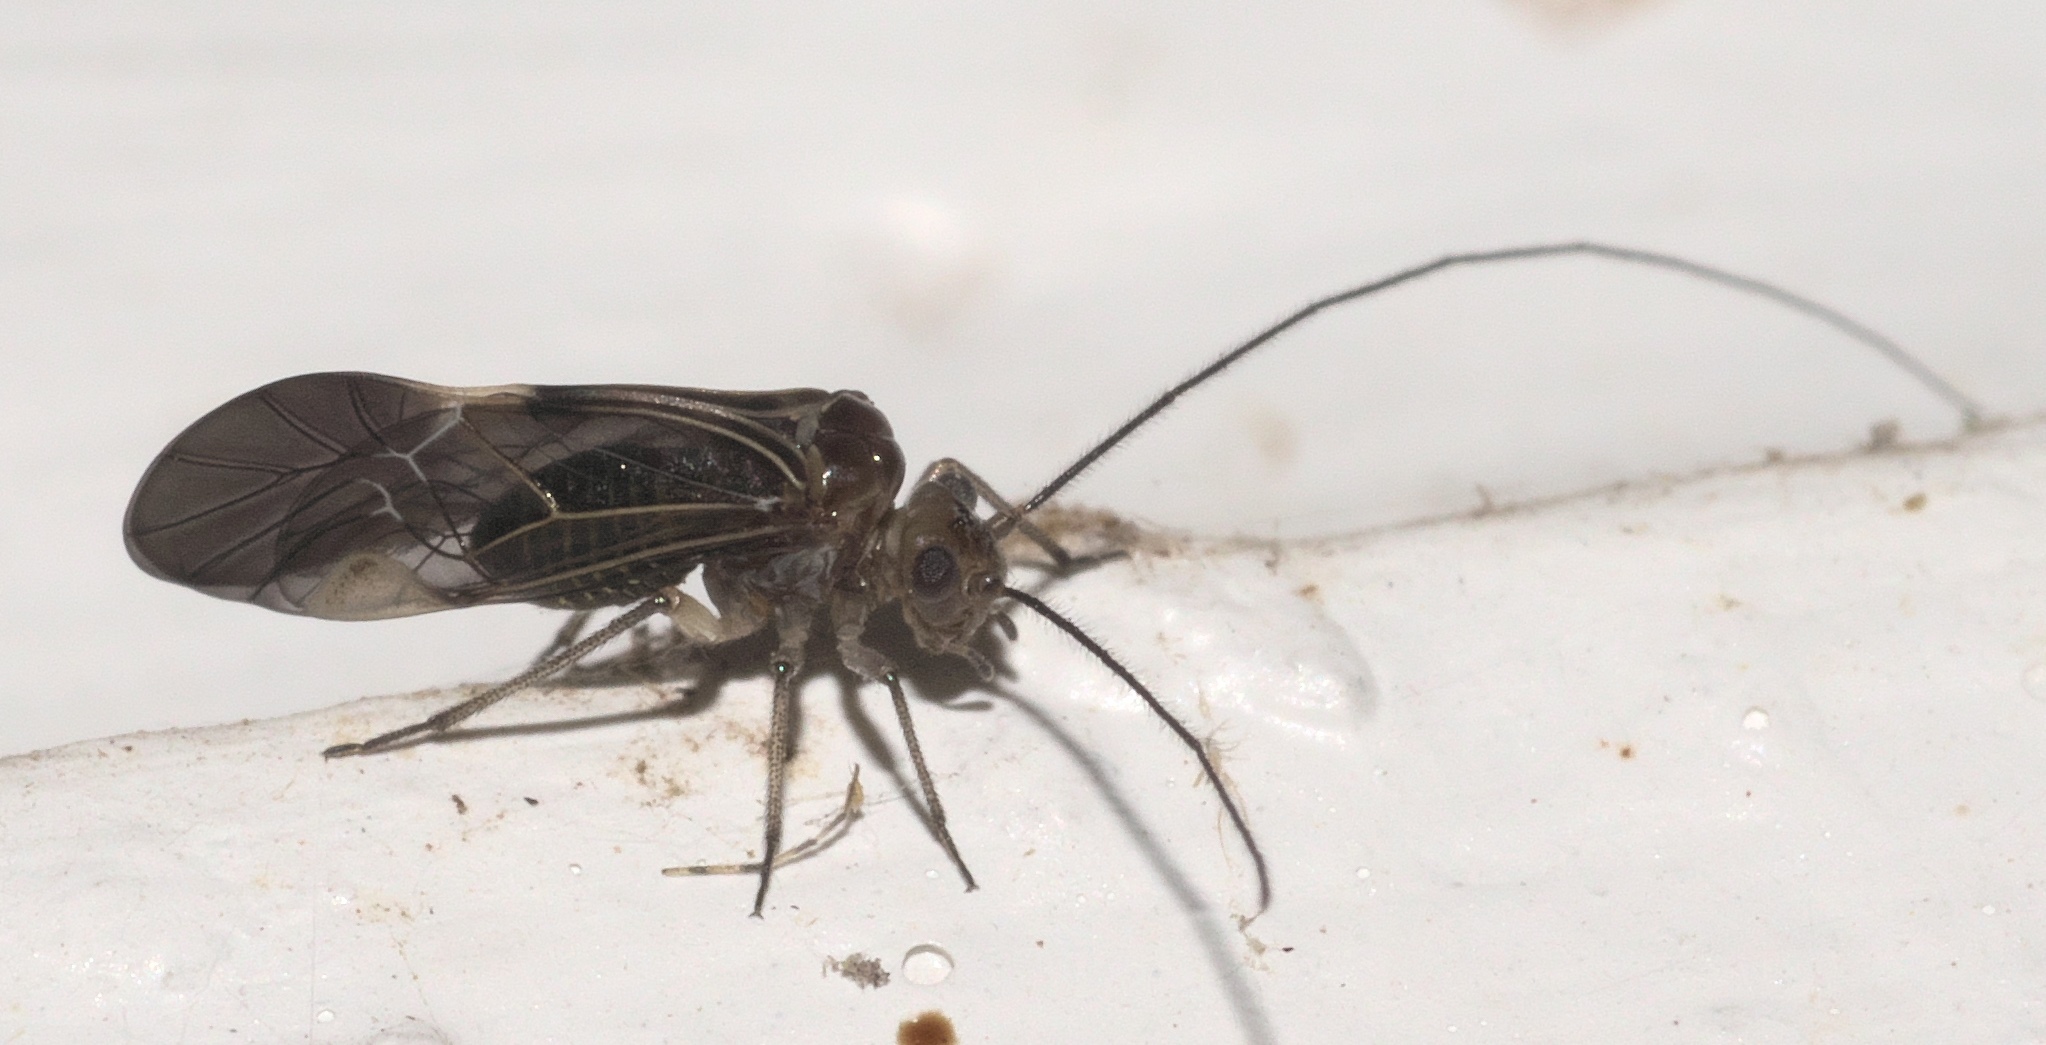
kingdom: Animalia
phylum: Arthropoda
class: Insecta
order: Psocodea
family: Psocidae
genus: Cerastipsocus
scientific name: Cerastipsocus venosus
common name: Tree cattle
